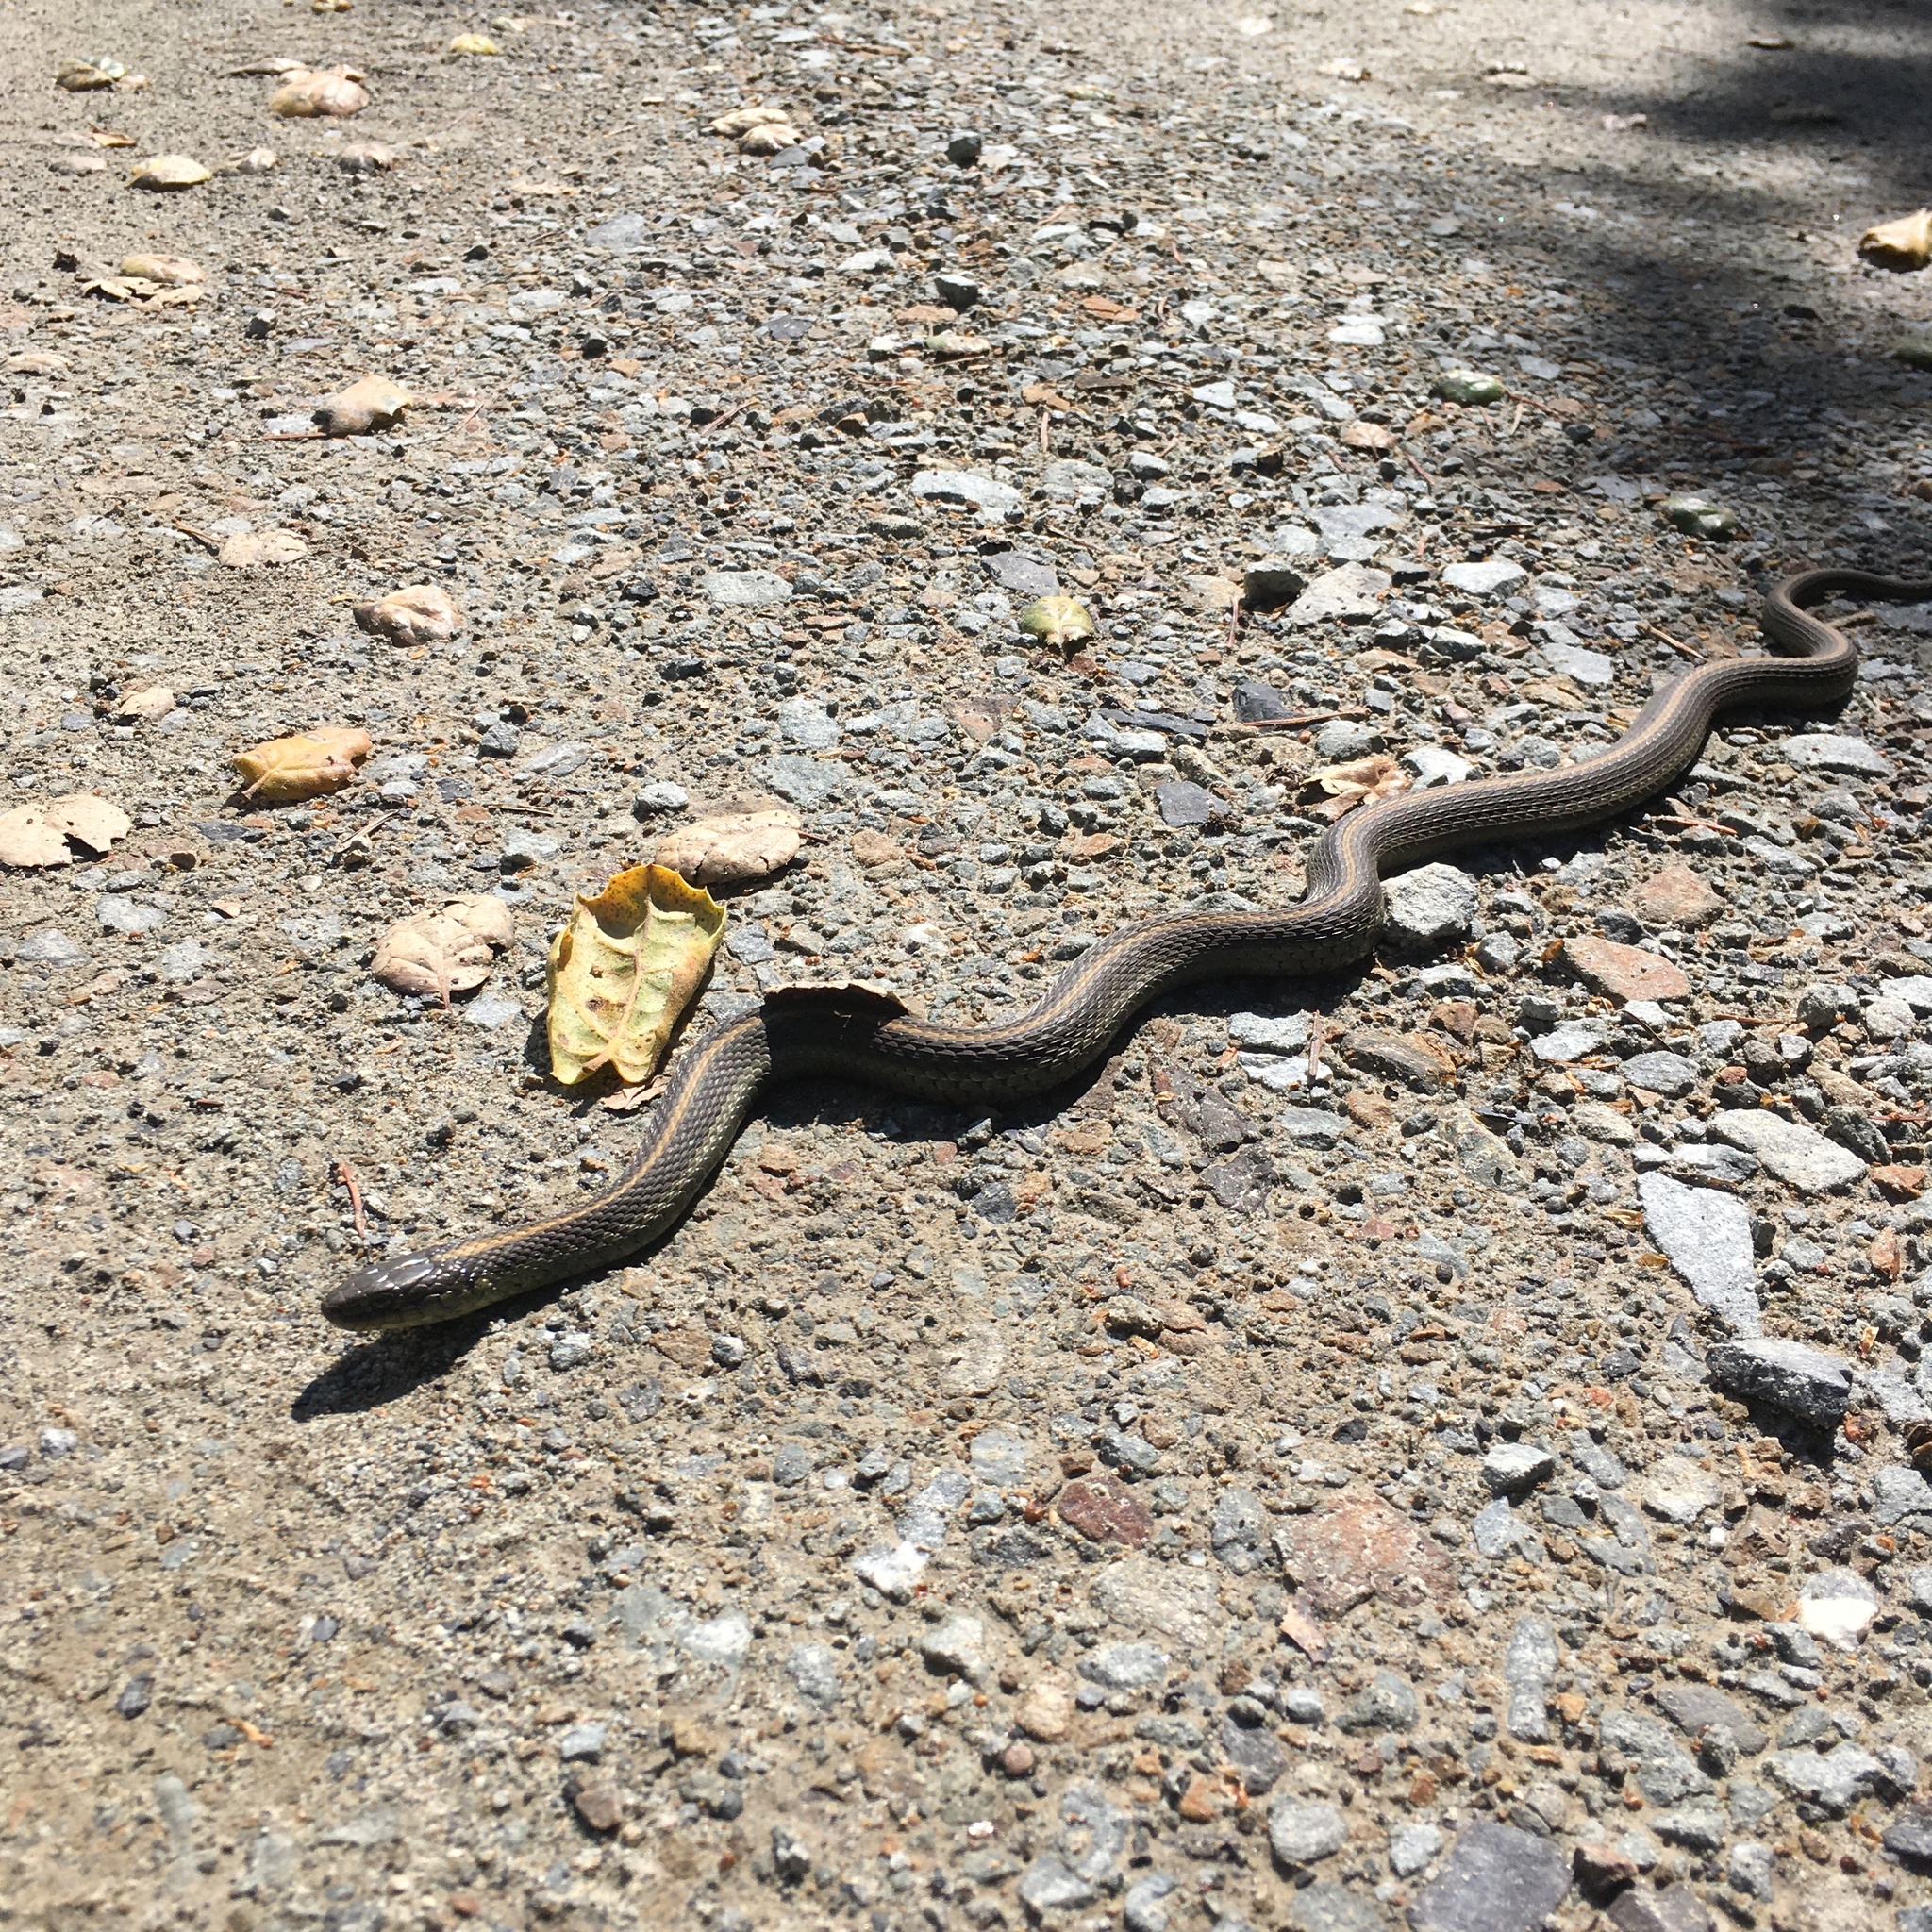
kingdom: Animalia
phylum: Chordata
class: Squamata
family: Colubridae
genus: Thamnophis
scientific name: Thamnophis atratus
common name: Pacific coast aquatic garter snake
